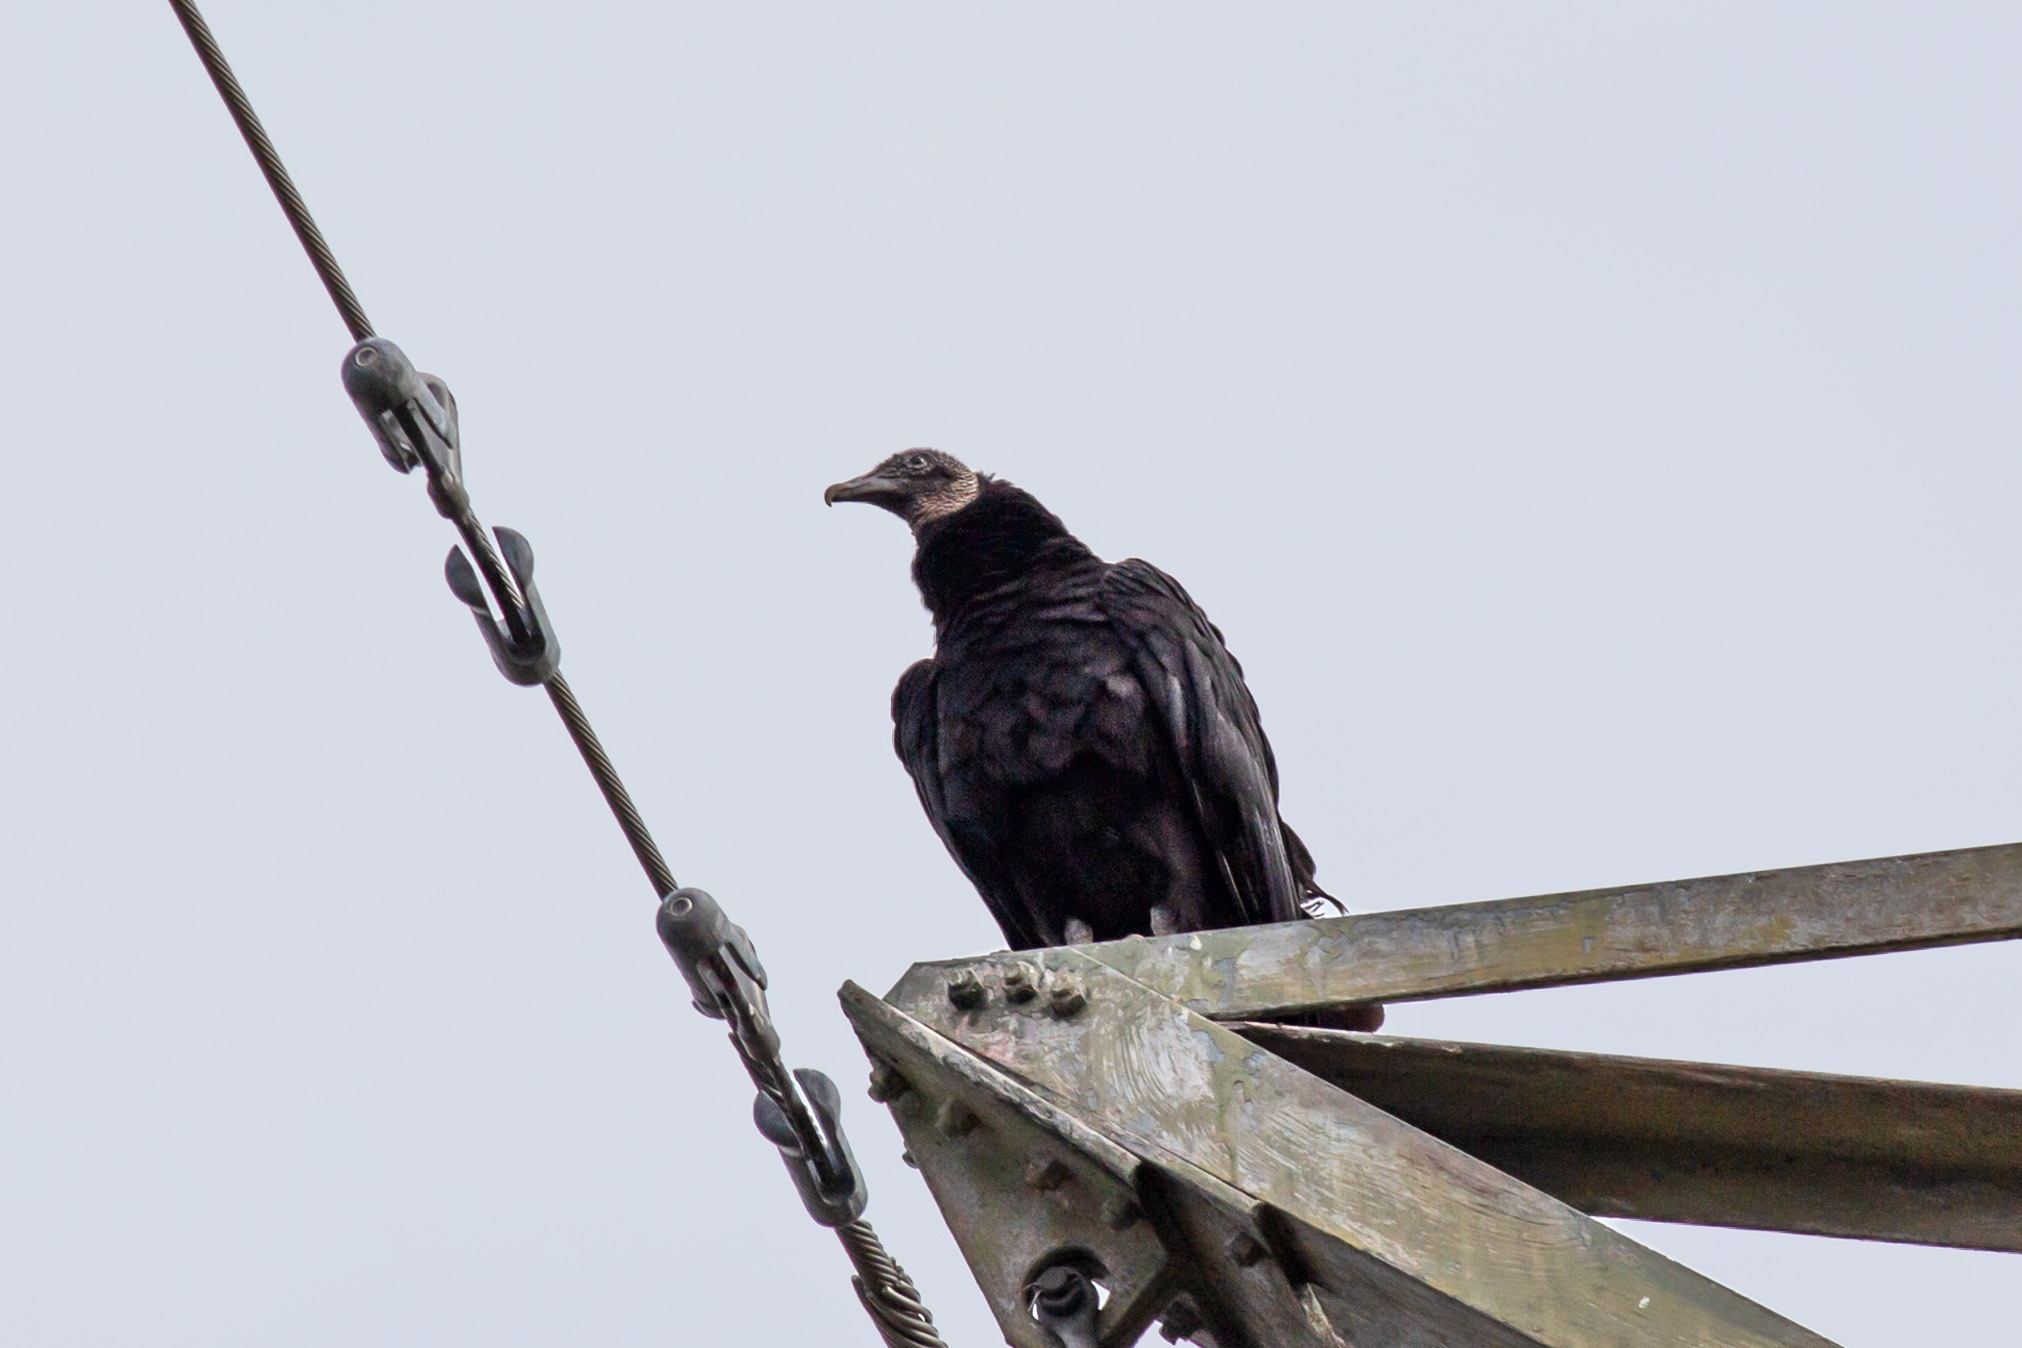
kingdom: Animalia
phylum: Chordata
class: Aves
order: Accipitriformes
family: Cathartidae
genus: Coragyps
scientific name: Coragyps atratus
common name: Black vulture
